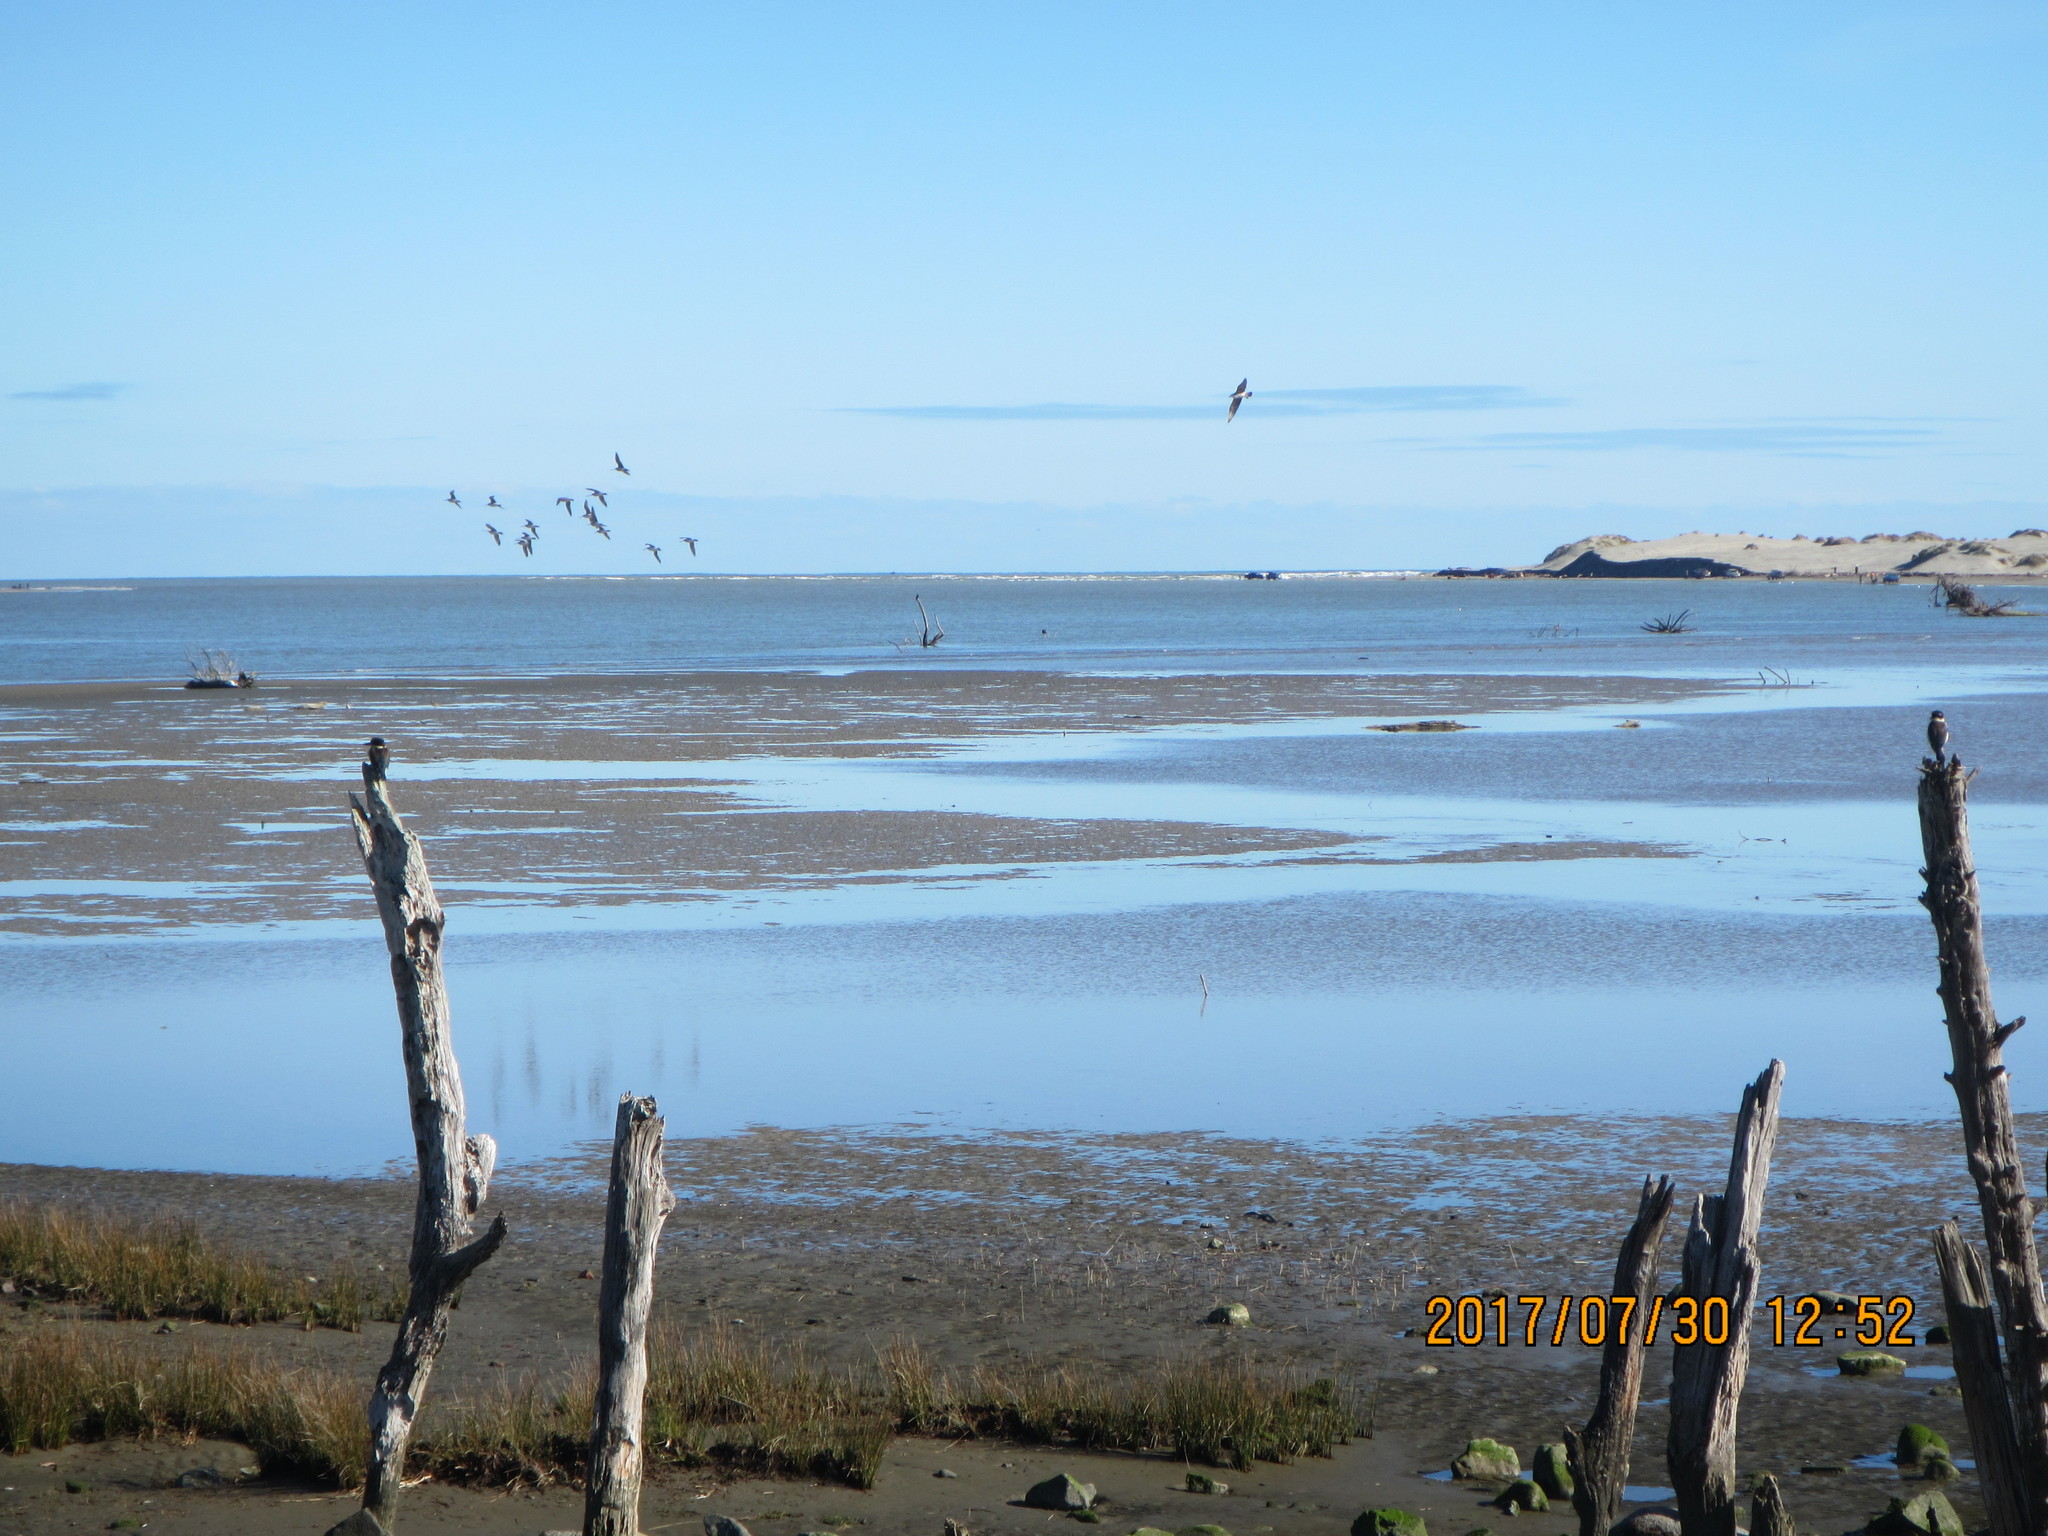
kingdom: Animalia
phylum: Chordata
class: Aves
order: Coraciiformes
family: Alcedinidae
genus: Todiramphus
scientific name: Todiramphus sanctus
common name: Sacred kingfisher
